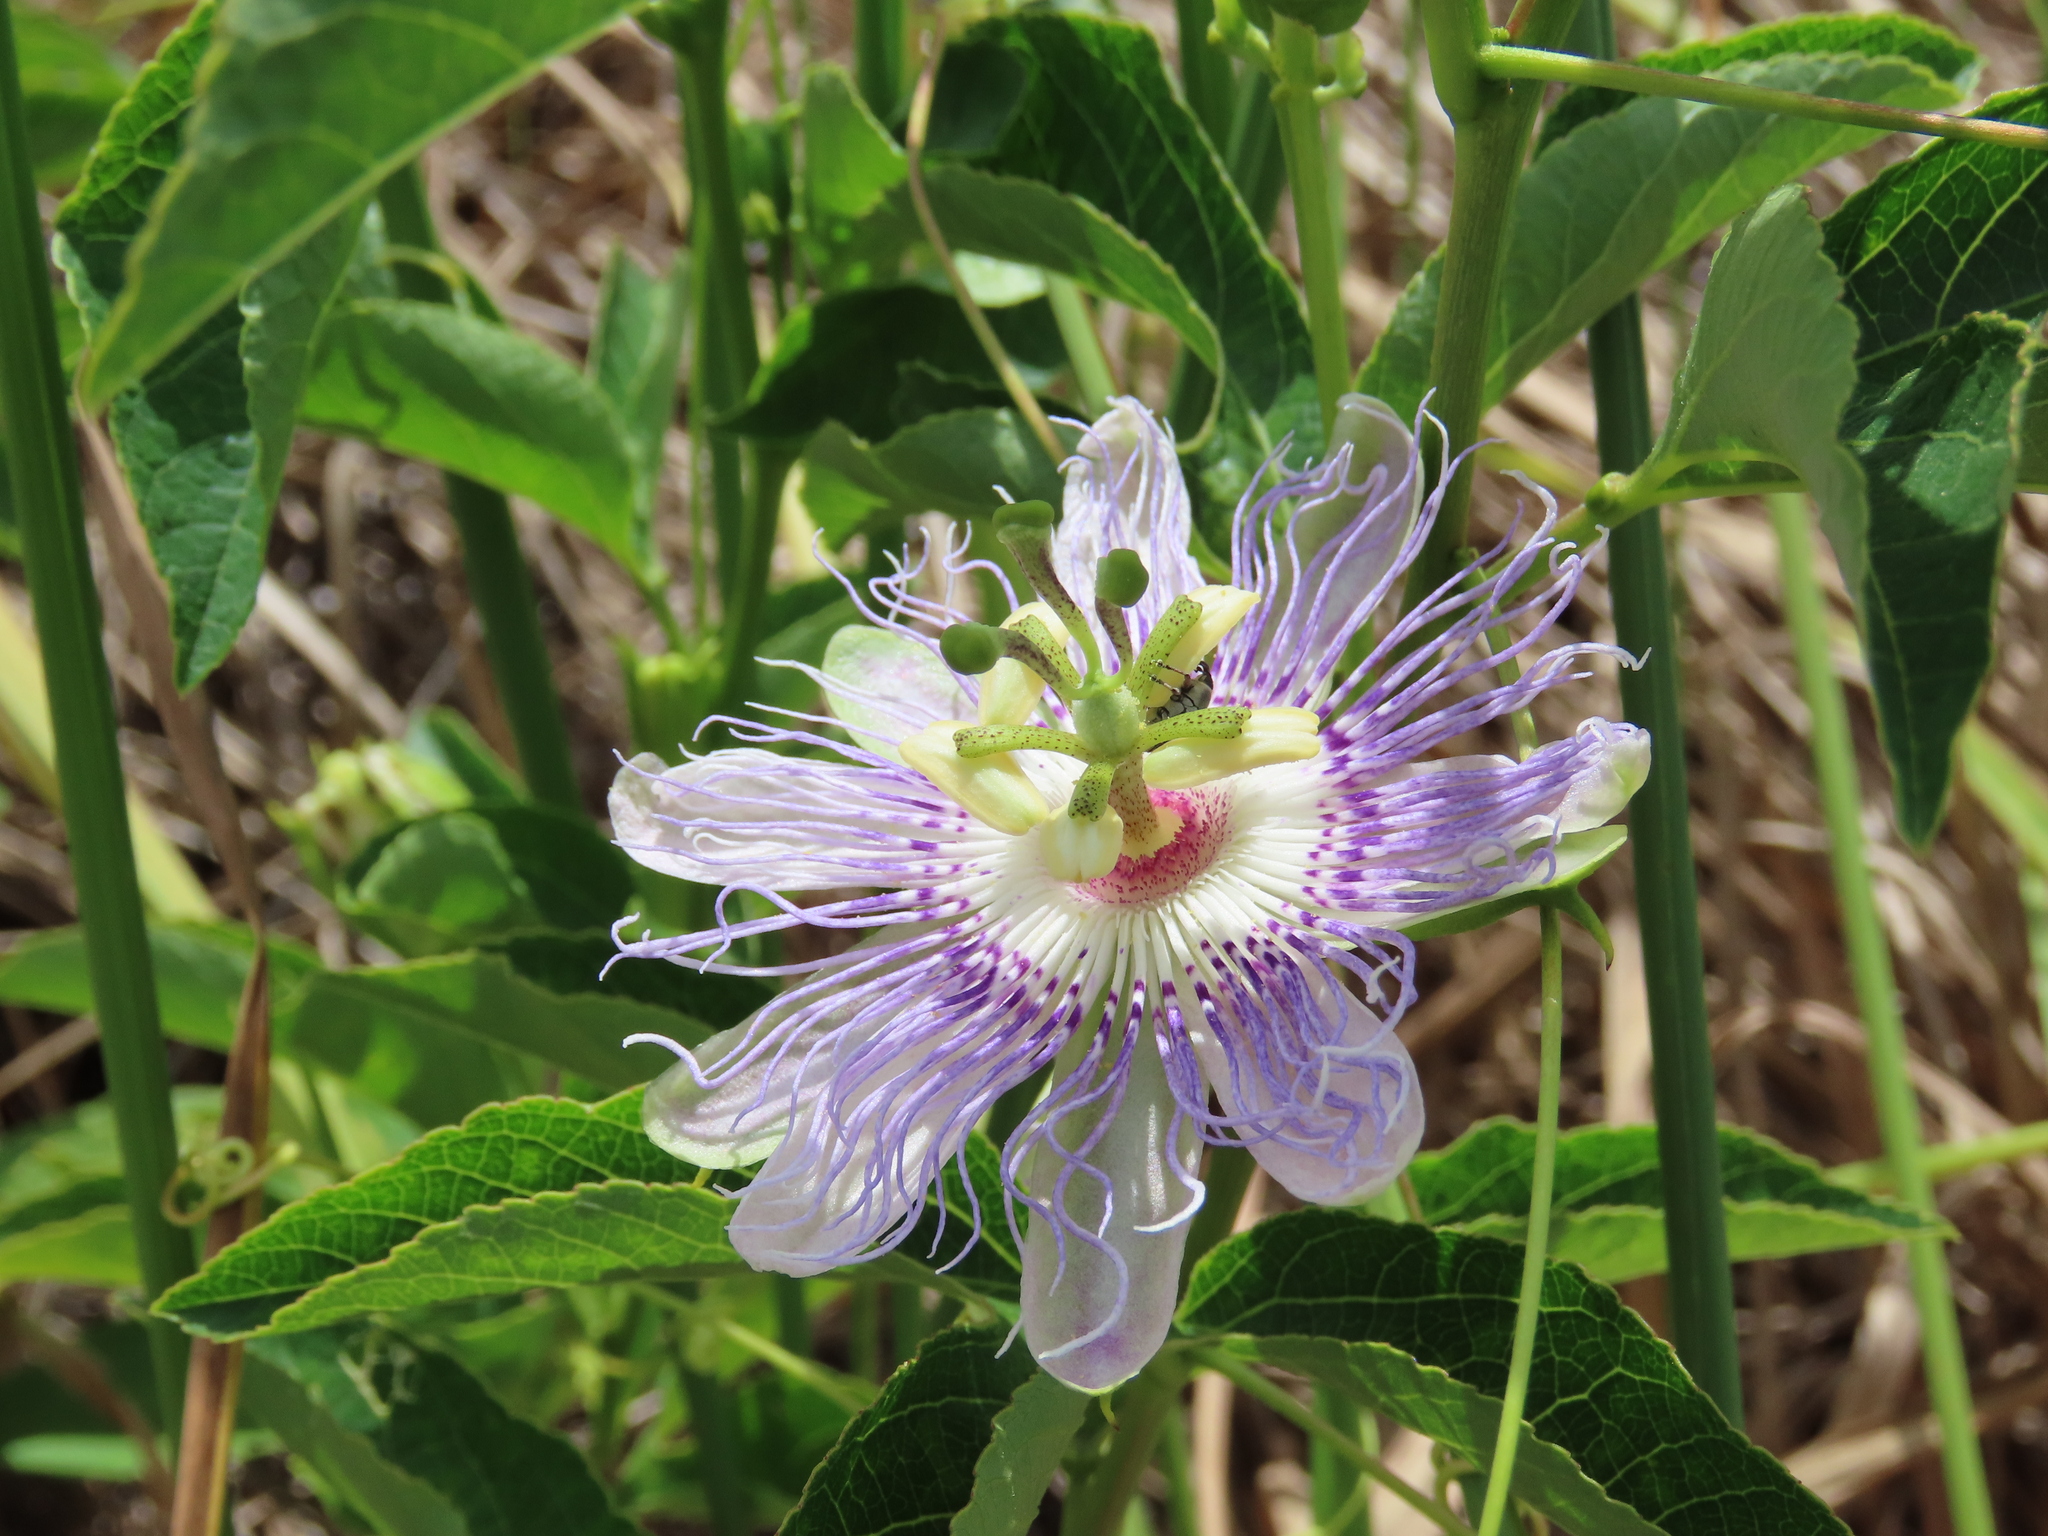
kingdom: Plantae
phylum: Tracheophyta
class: Magnoliopsida
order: Malpighiales
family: Passifloraceae
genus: Passiflora
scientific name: Passiflora incarnata
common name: Apricot-vine
